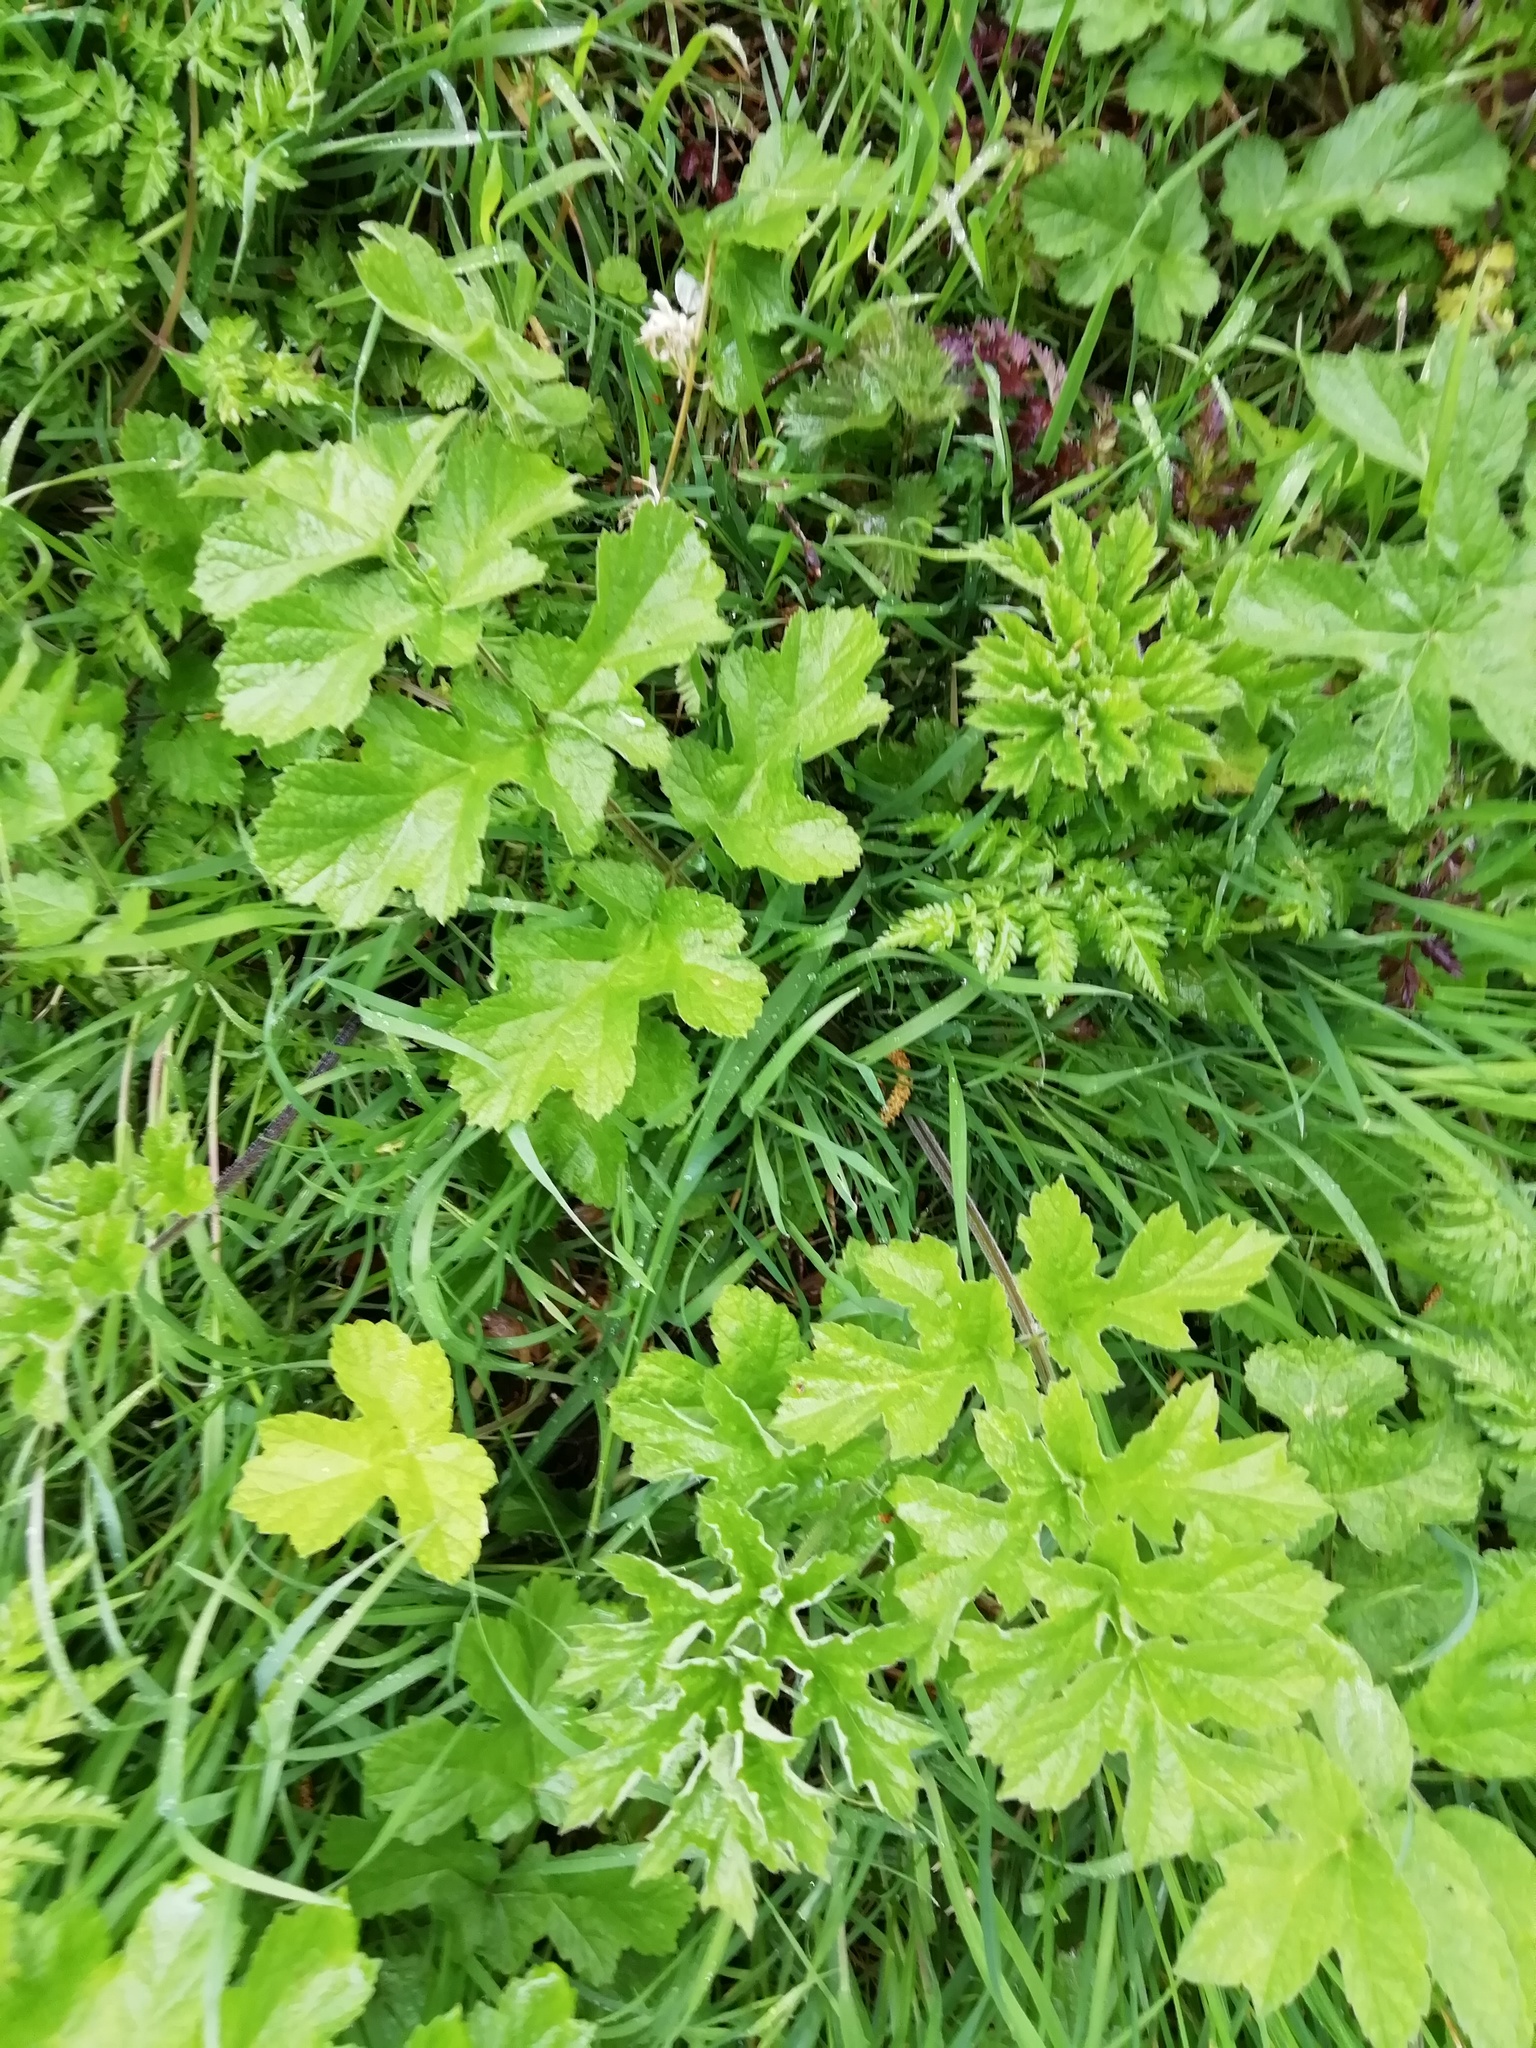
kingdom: Plantae
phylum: Tracheophyta
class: Magnoliopsida
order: Apiales
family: Apiaceae
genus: Heracleum
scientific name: Heracleum sphondylium
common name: Hogweed
